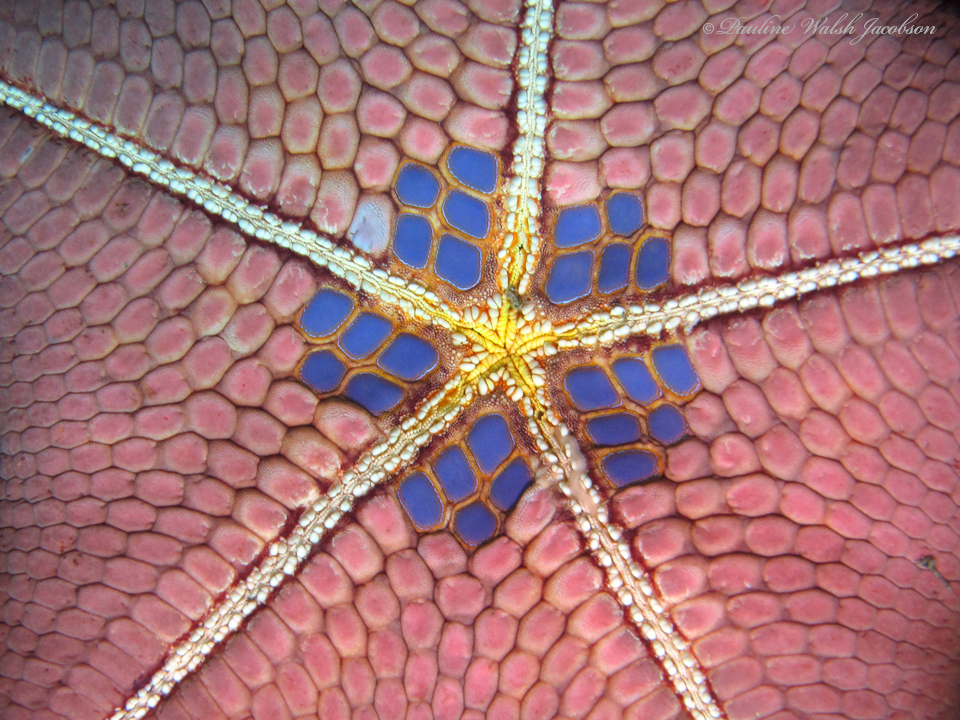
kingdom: Animalia
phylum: Echinodermata
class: Asteroidea
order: Valvatida
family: Oreasteridae
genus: Halityle
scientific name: Halityle regularis
